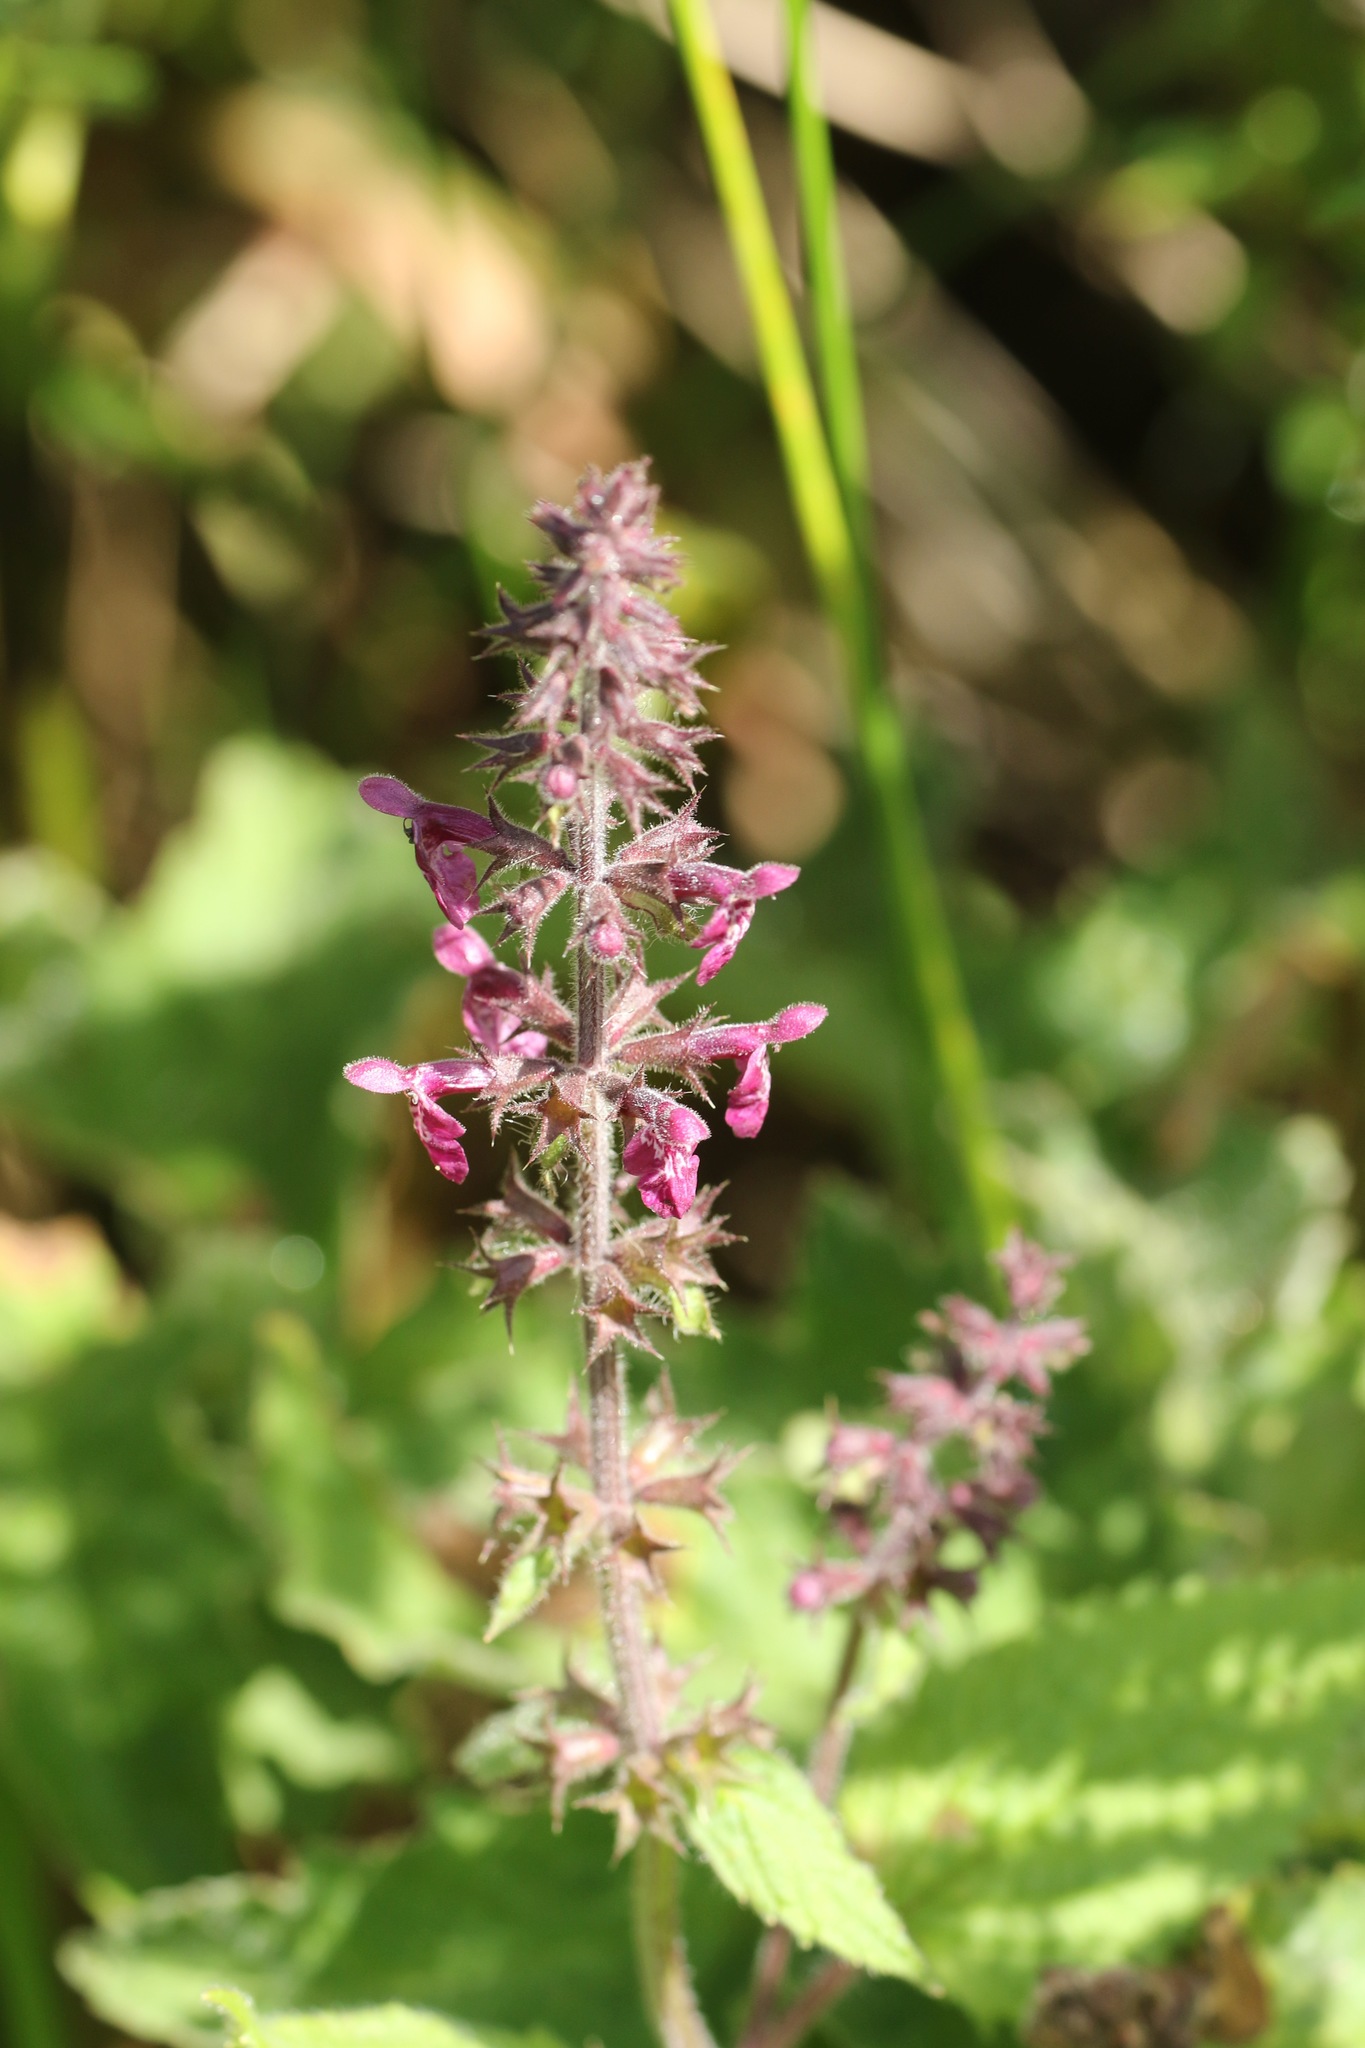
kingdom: Plantae
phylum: Tracheophyta
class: Magnoliopsida
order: Lamiales
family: Lamiaceae
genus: Stachys
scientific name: Stachys sylvatica
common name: Hedge woundwort
